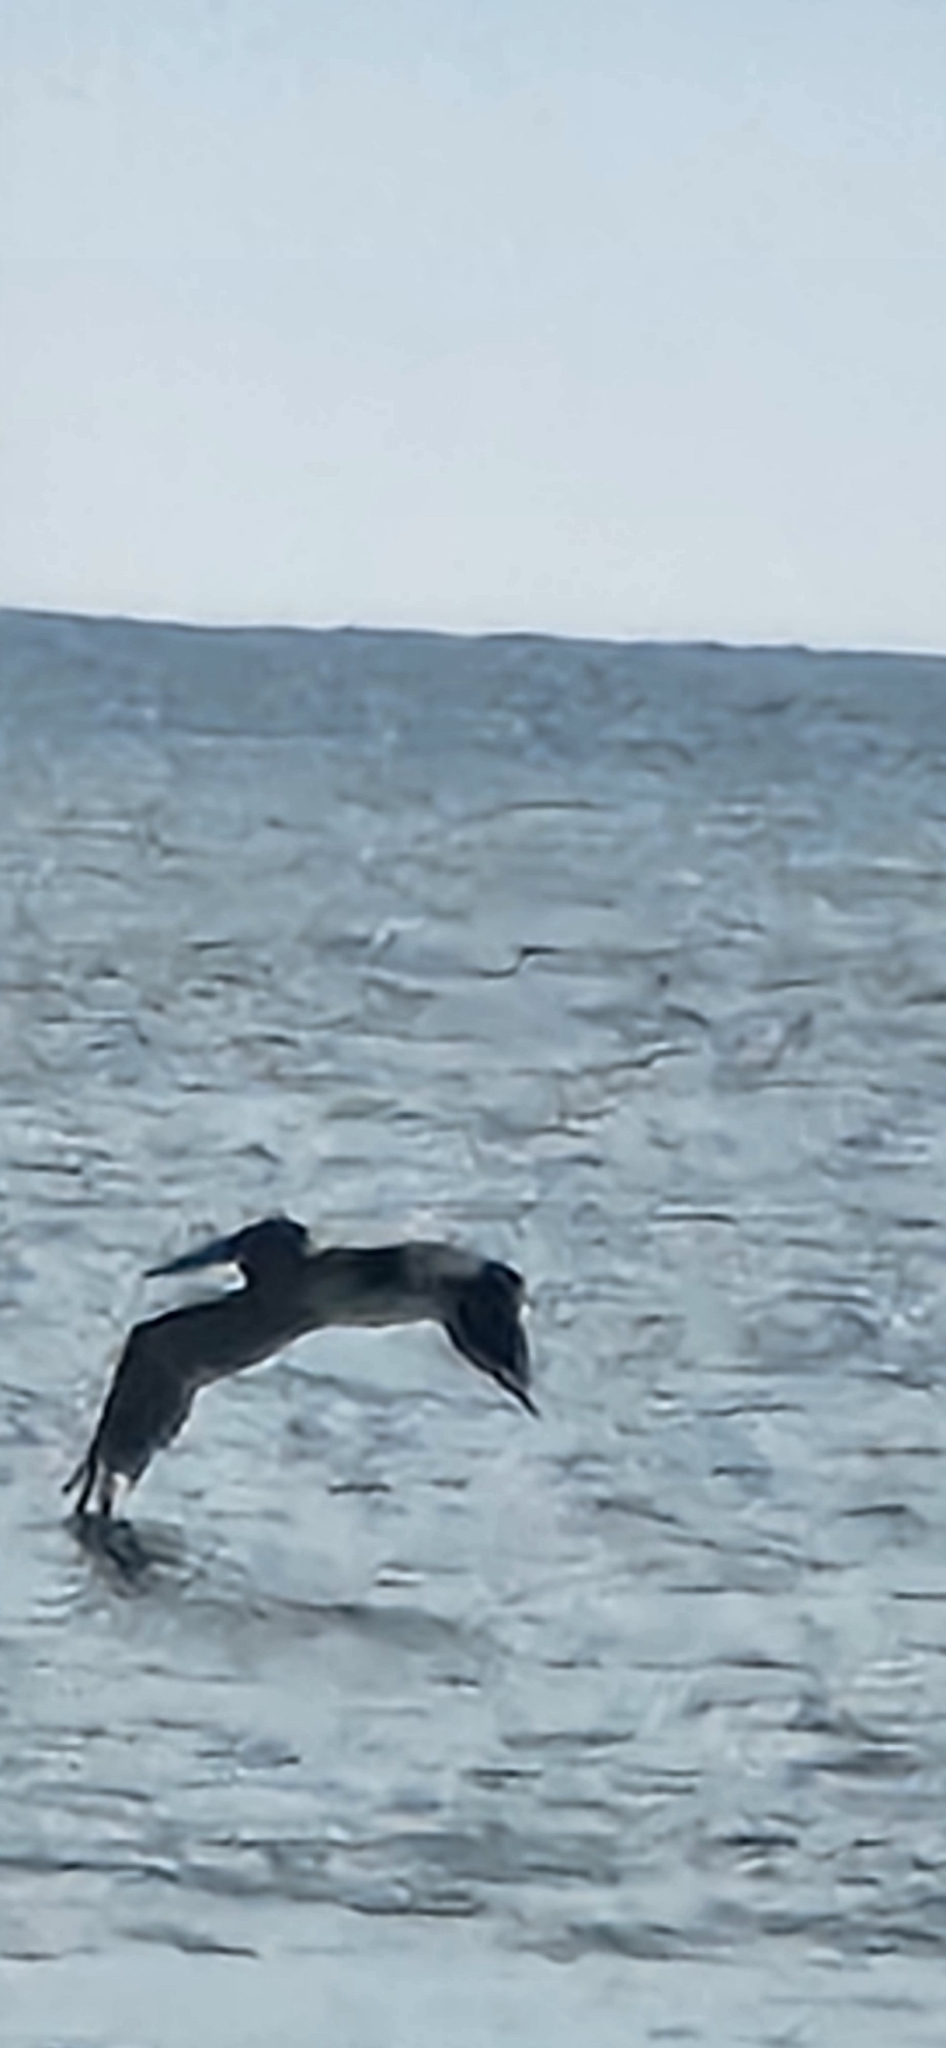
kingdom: Animalia
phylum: Chordata
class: Aves
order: Pelecaniformes
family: Pelecanidae
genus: Pelecanus
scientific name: Pelecanus occidentalis
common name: Brown pelican
